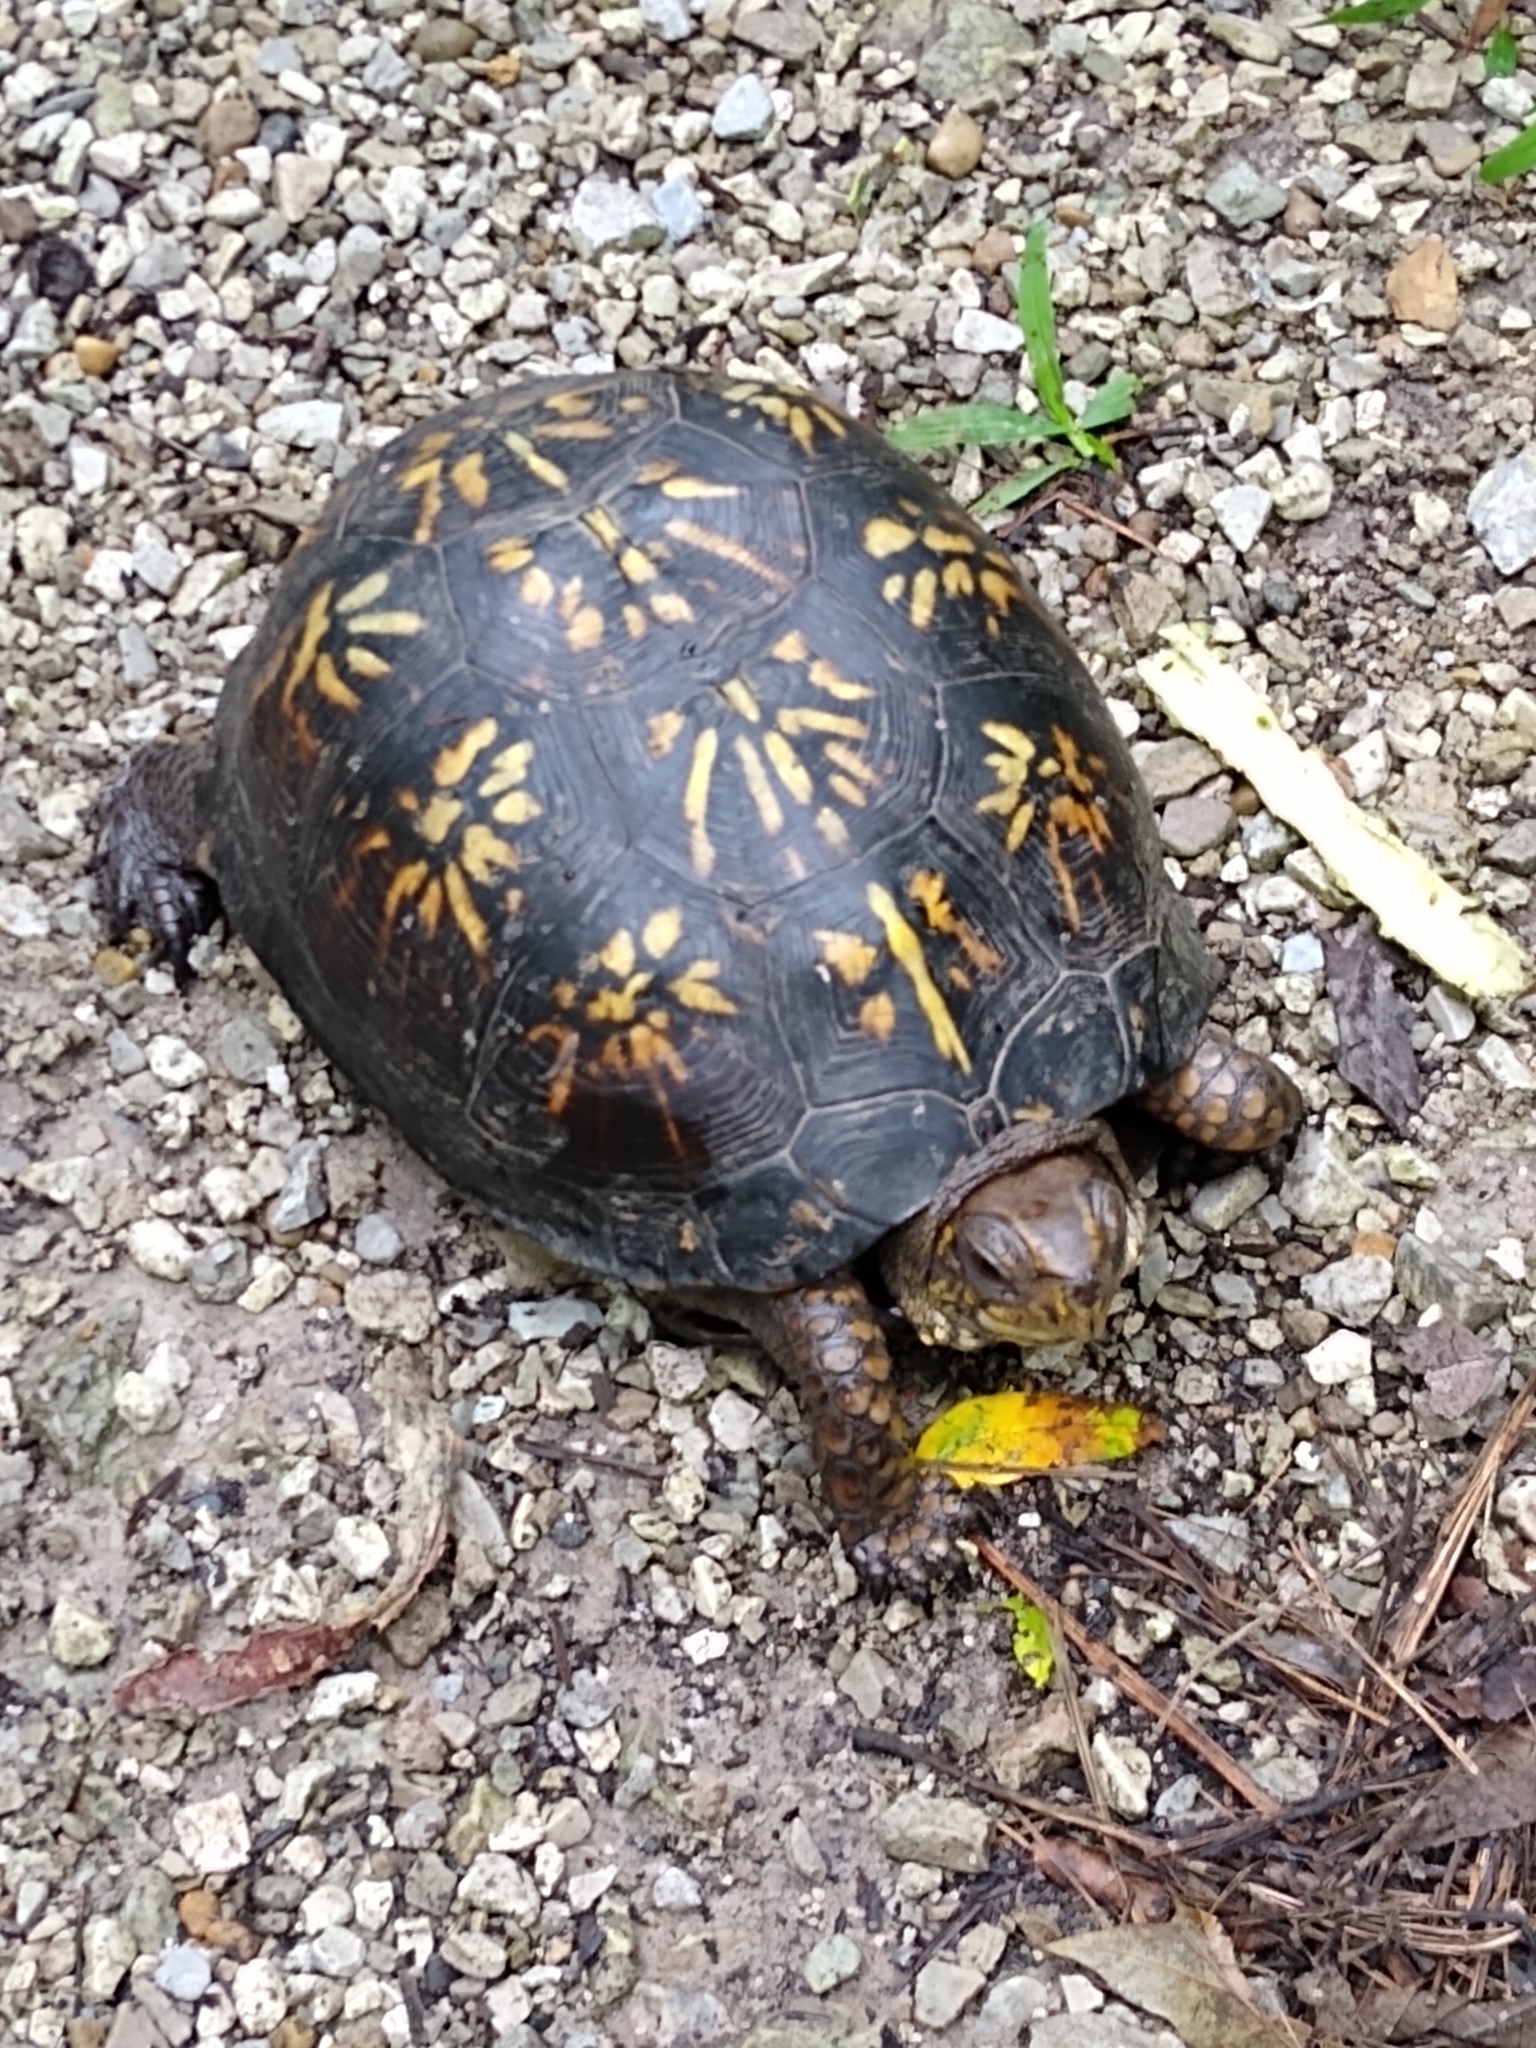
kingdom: Animalia
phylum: Chordata
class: Testudines
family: Emydidae
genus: Terrapene
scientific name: Terrapene carolina
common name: Common box turtle
